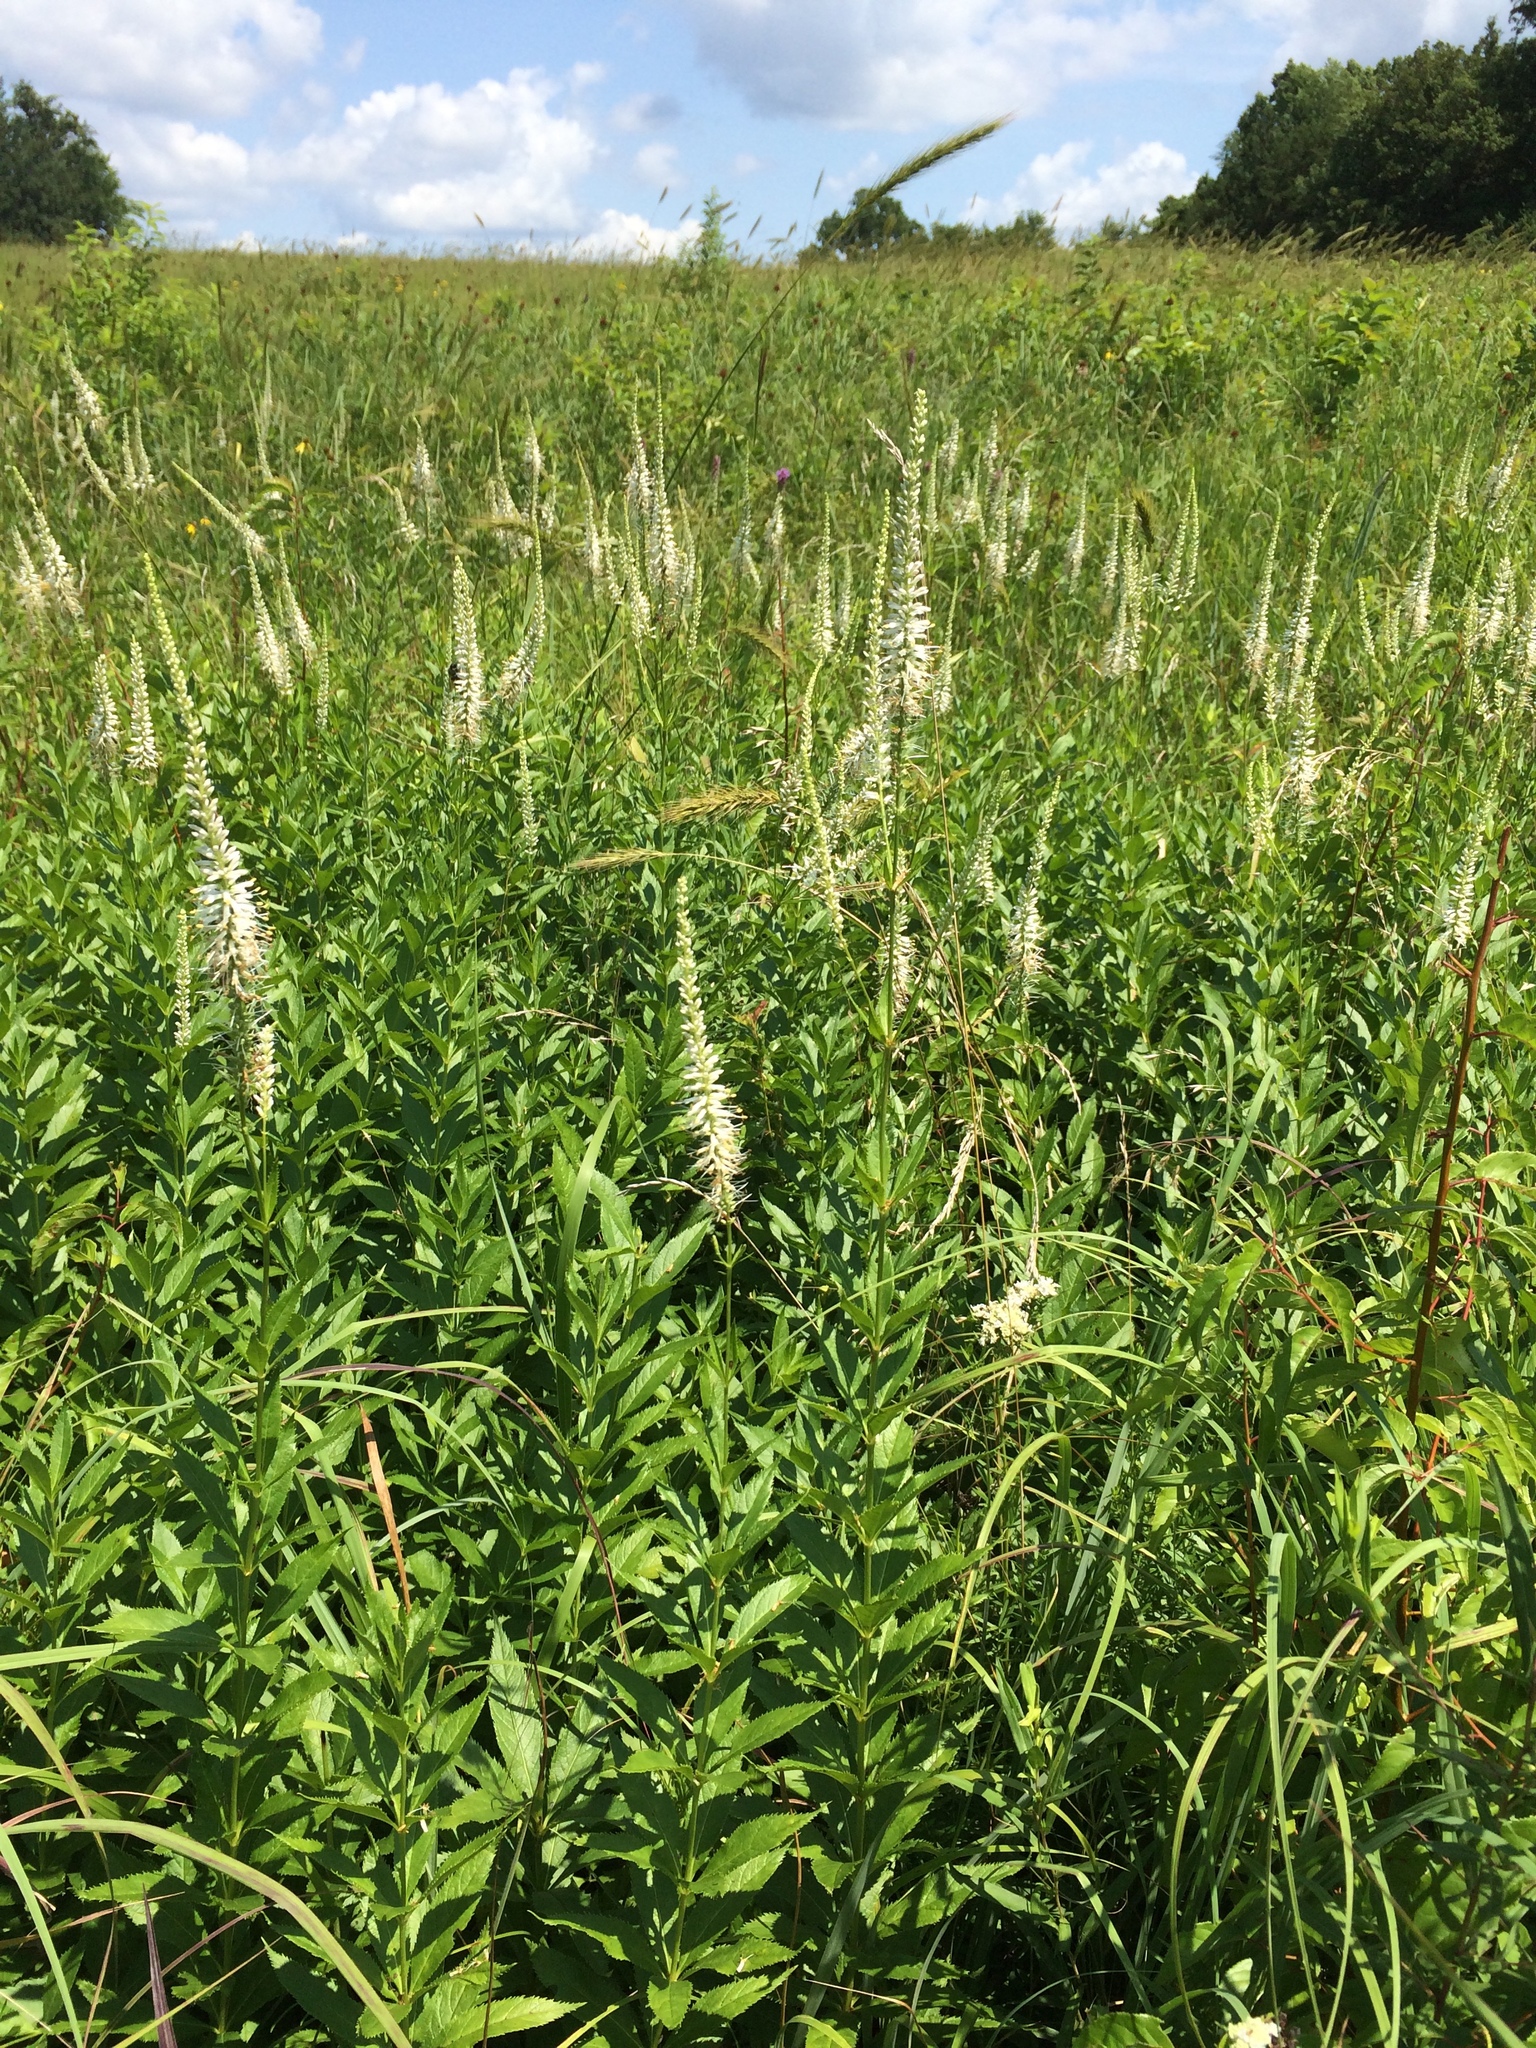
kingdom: Plantae
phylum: Tracheophyta
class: Magnoliopsida
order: Lamiales
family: Plantaginaceae
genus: Veronicastrum
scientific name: Veronicastrum virginicum
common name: Blackroot
